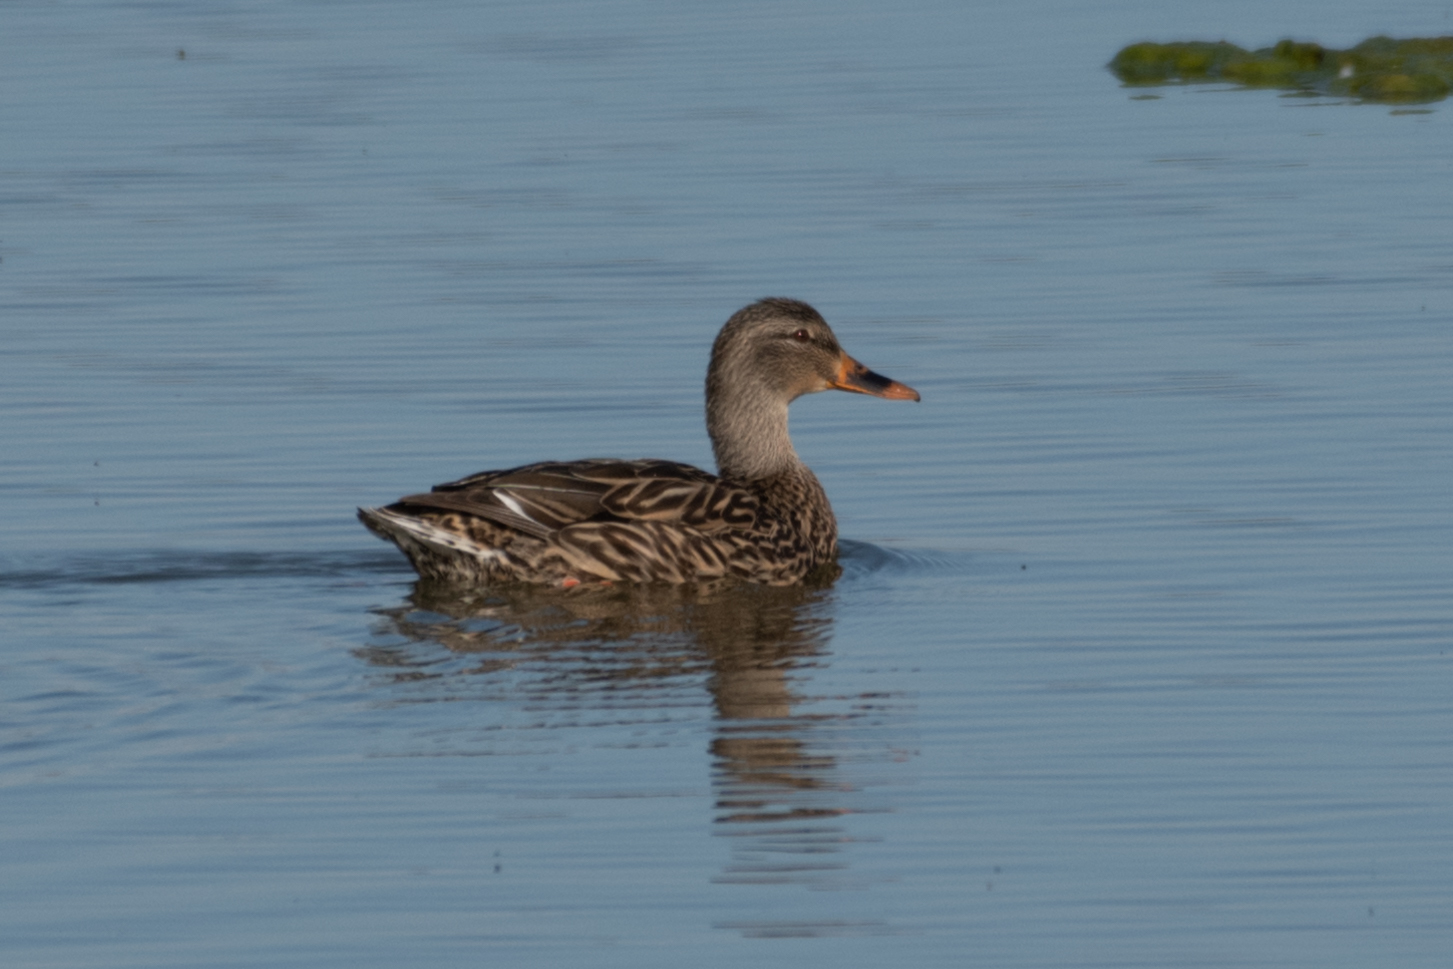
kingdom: Animalia
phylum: Chordata
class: Aves
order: Anseriformes
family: Anatidae
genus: Anas
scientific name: Anas platyrhynchos
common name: Mallard
